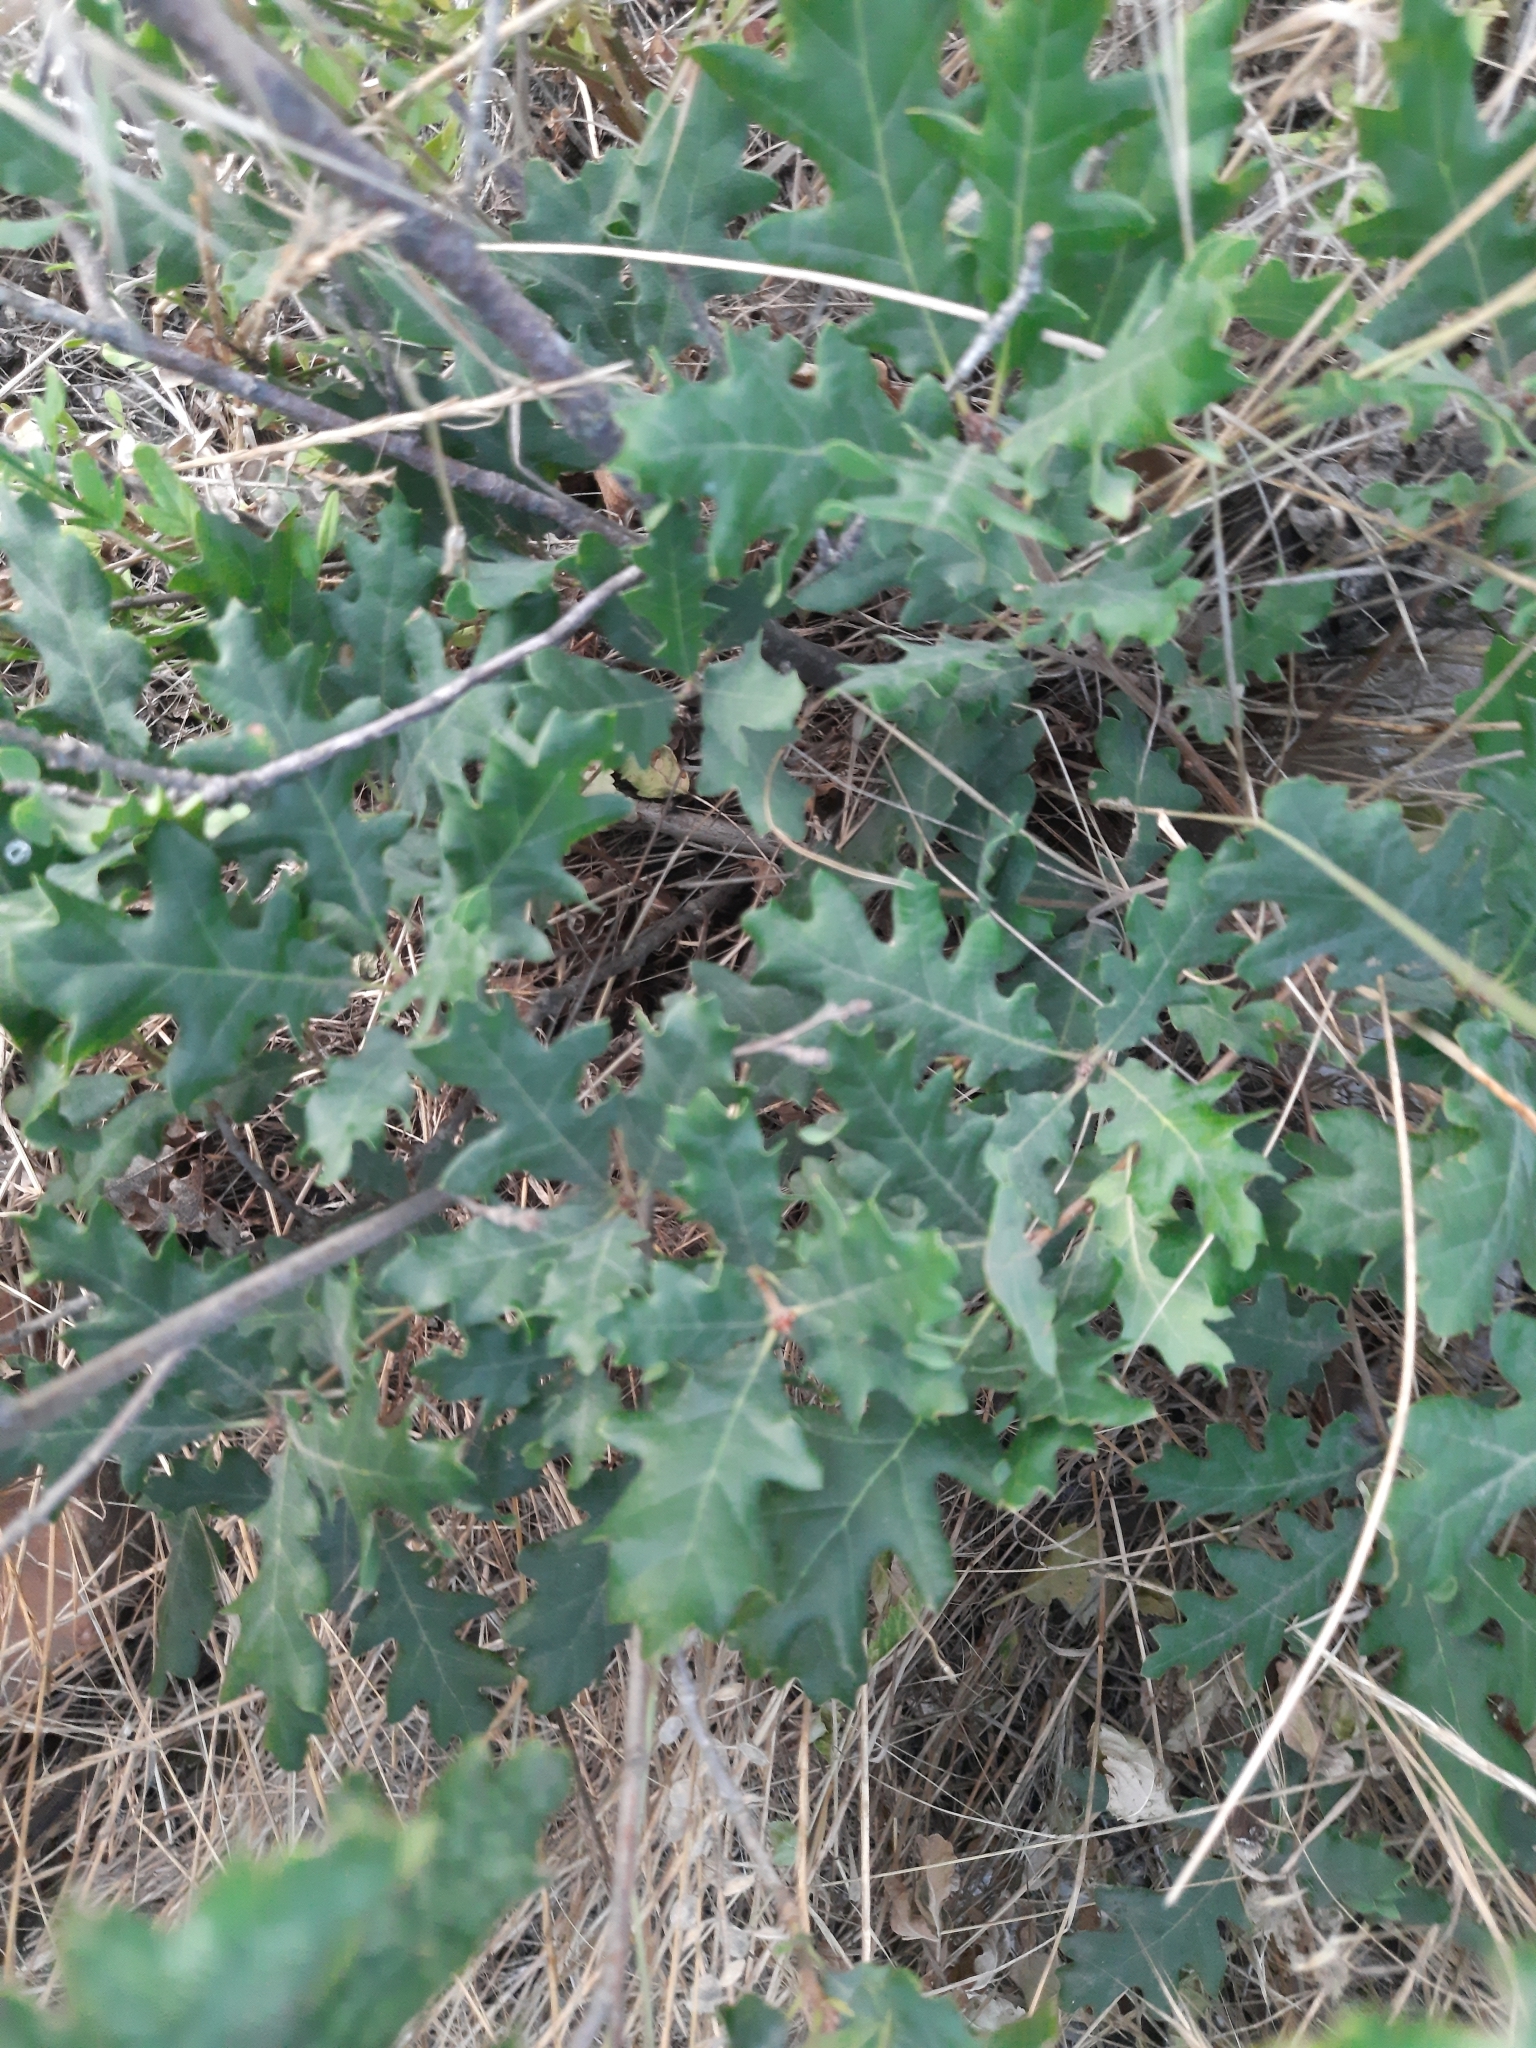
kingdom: Plantae
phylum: Tracheophyta
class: Magnoliopsida
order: Fagales
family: Fagaceae
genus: Quercus
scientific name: Quercus pubescens
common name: Downy oak
